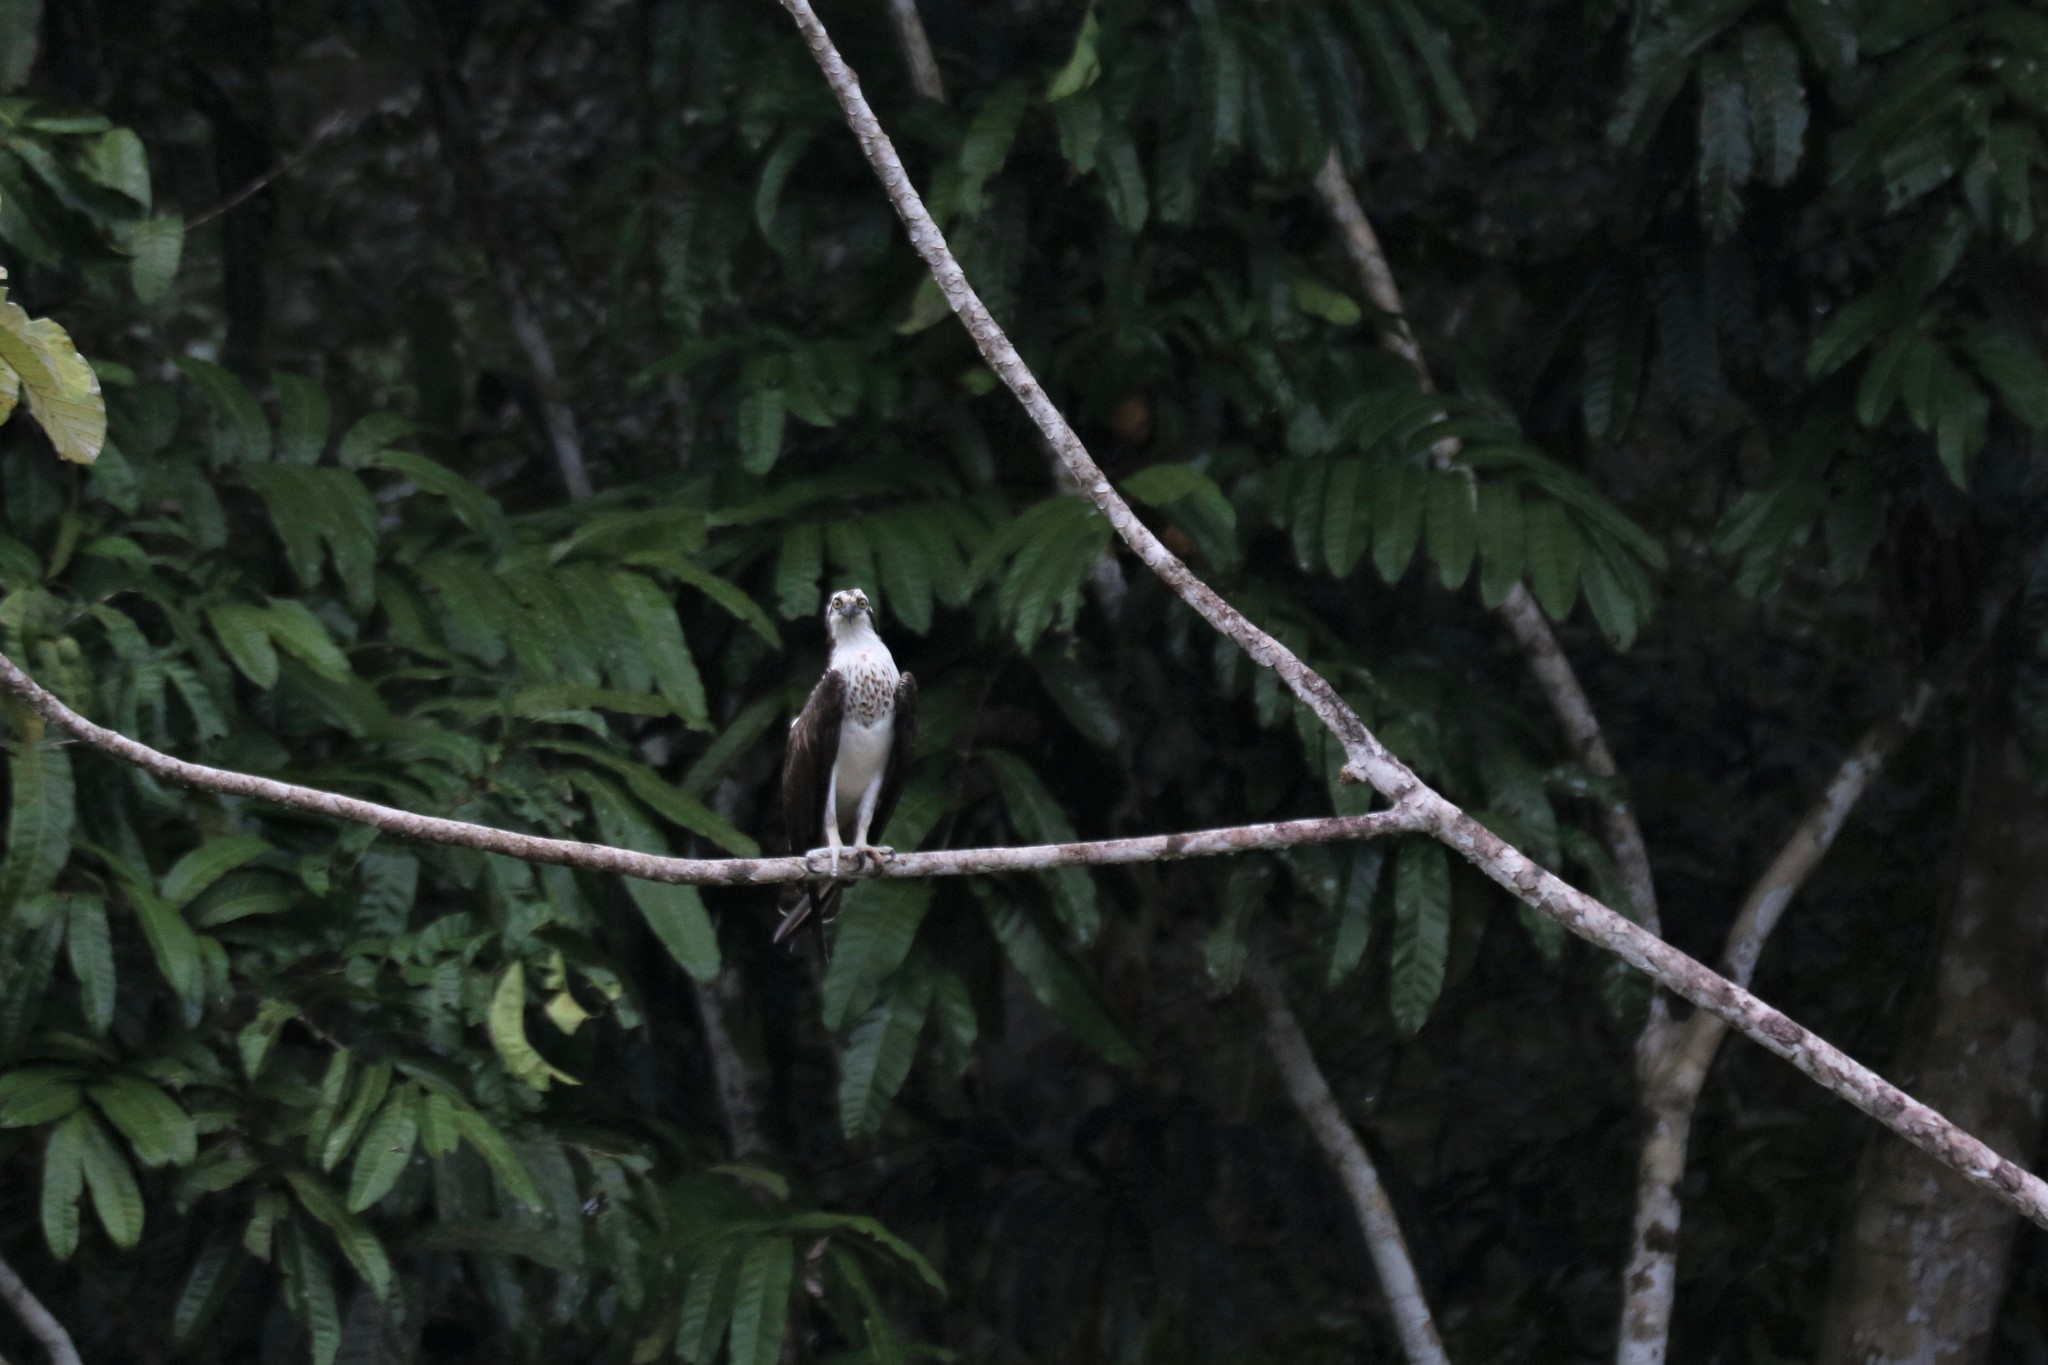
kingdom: Animalia
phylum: Chordata
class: Aves
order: Accipitriformes
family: Pandionidae
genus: Pandion
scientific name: Pandion haliaetus
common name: Osprey
